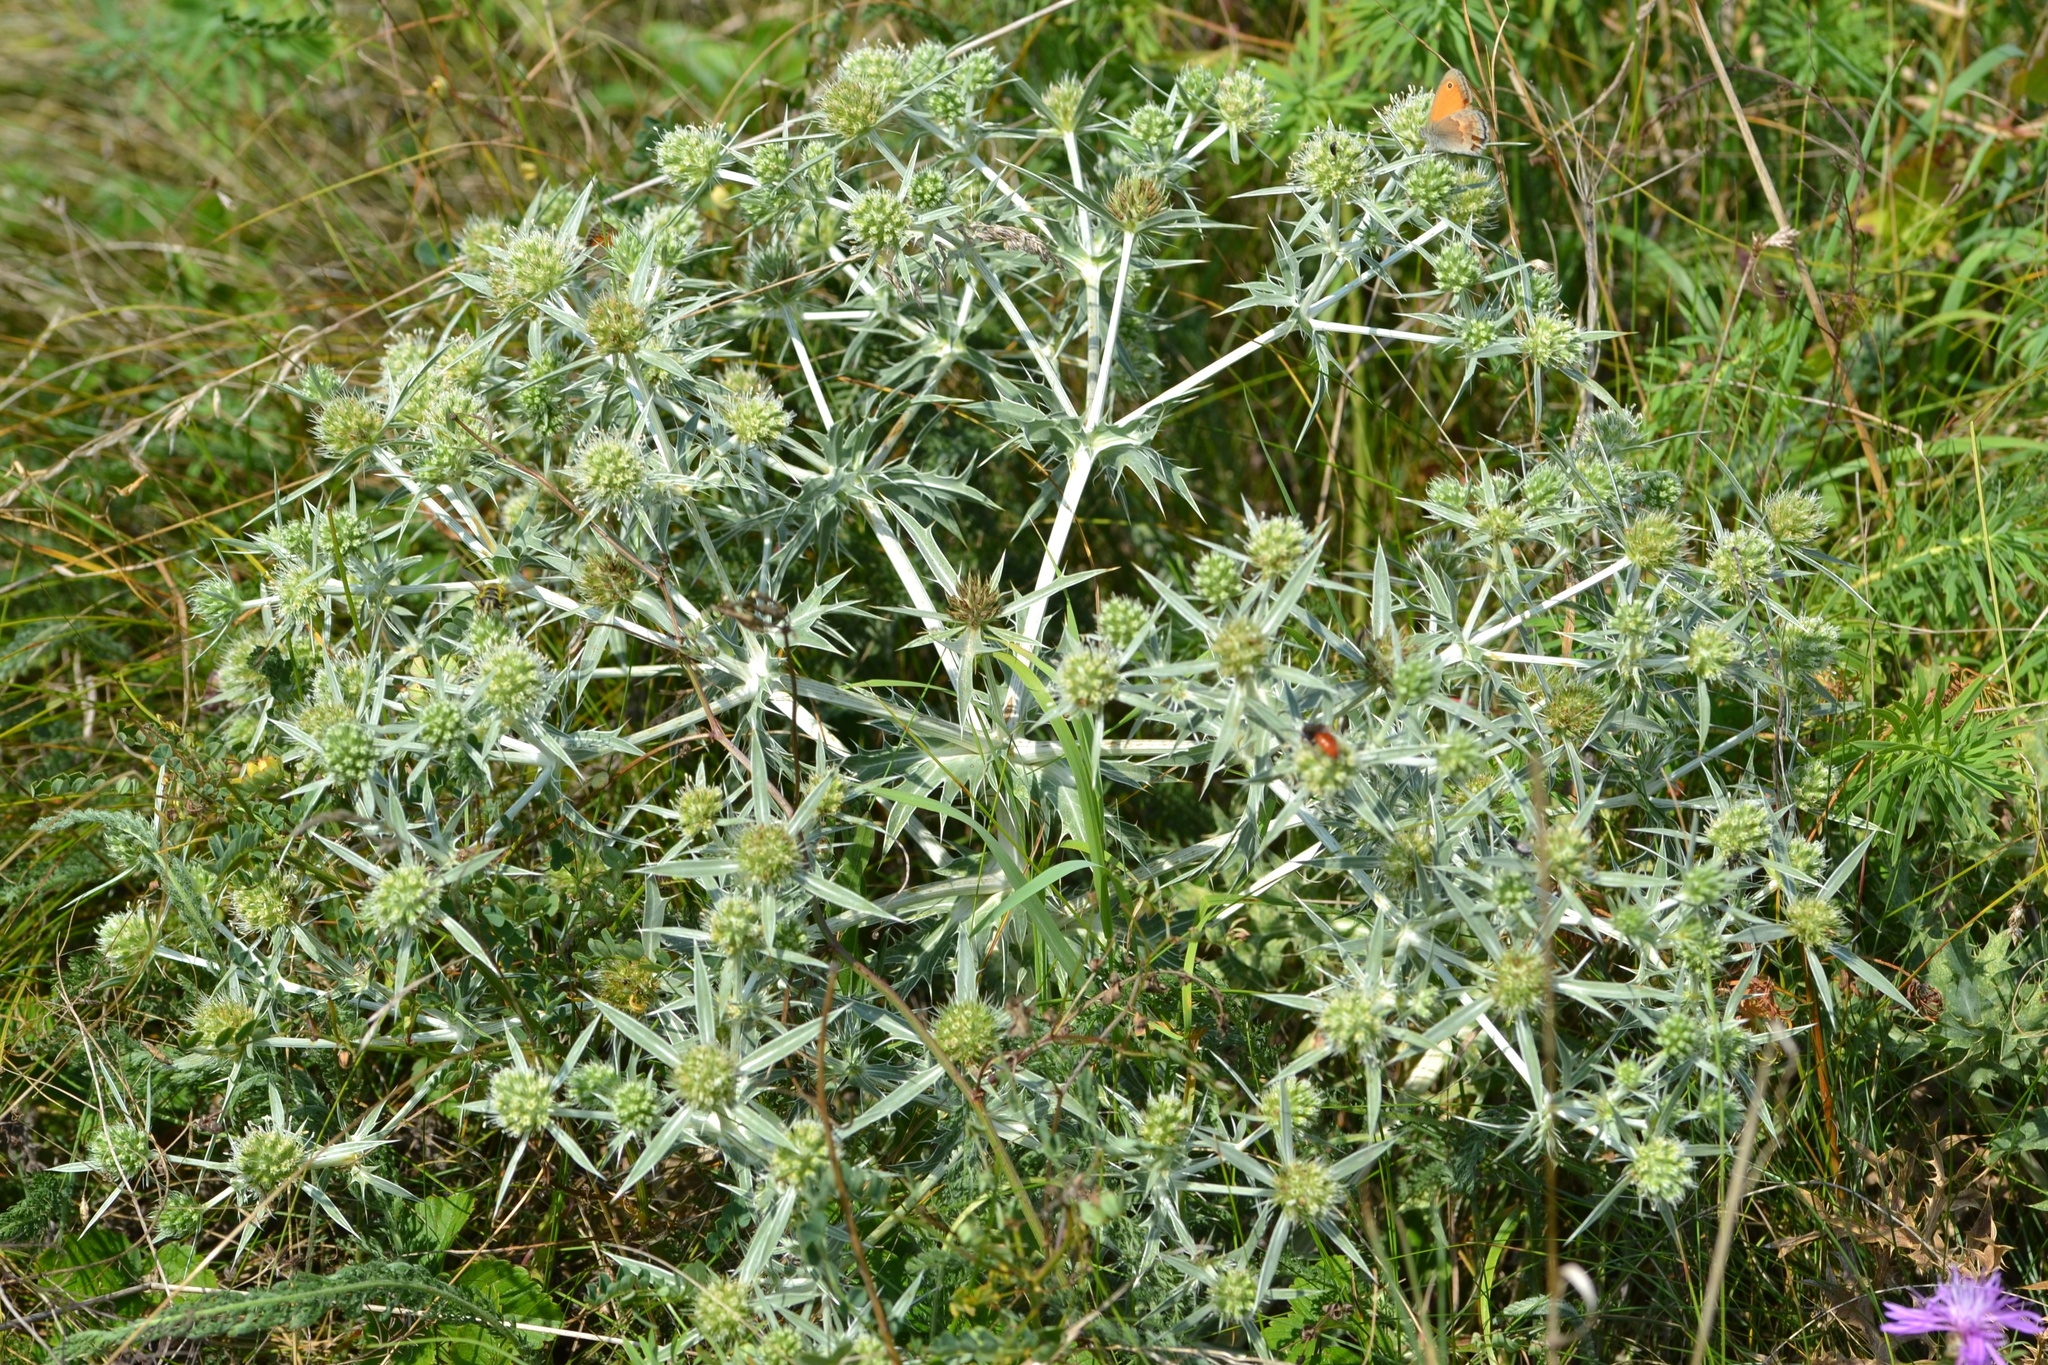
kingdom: Plantae
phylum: Tracheophyta
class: Magnoliopsida
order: Apiales
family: Apiaceae
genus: Eryngium
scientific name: Eryngium campestre
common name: Field eryngo
